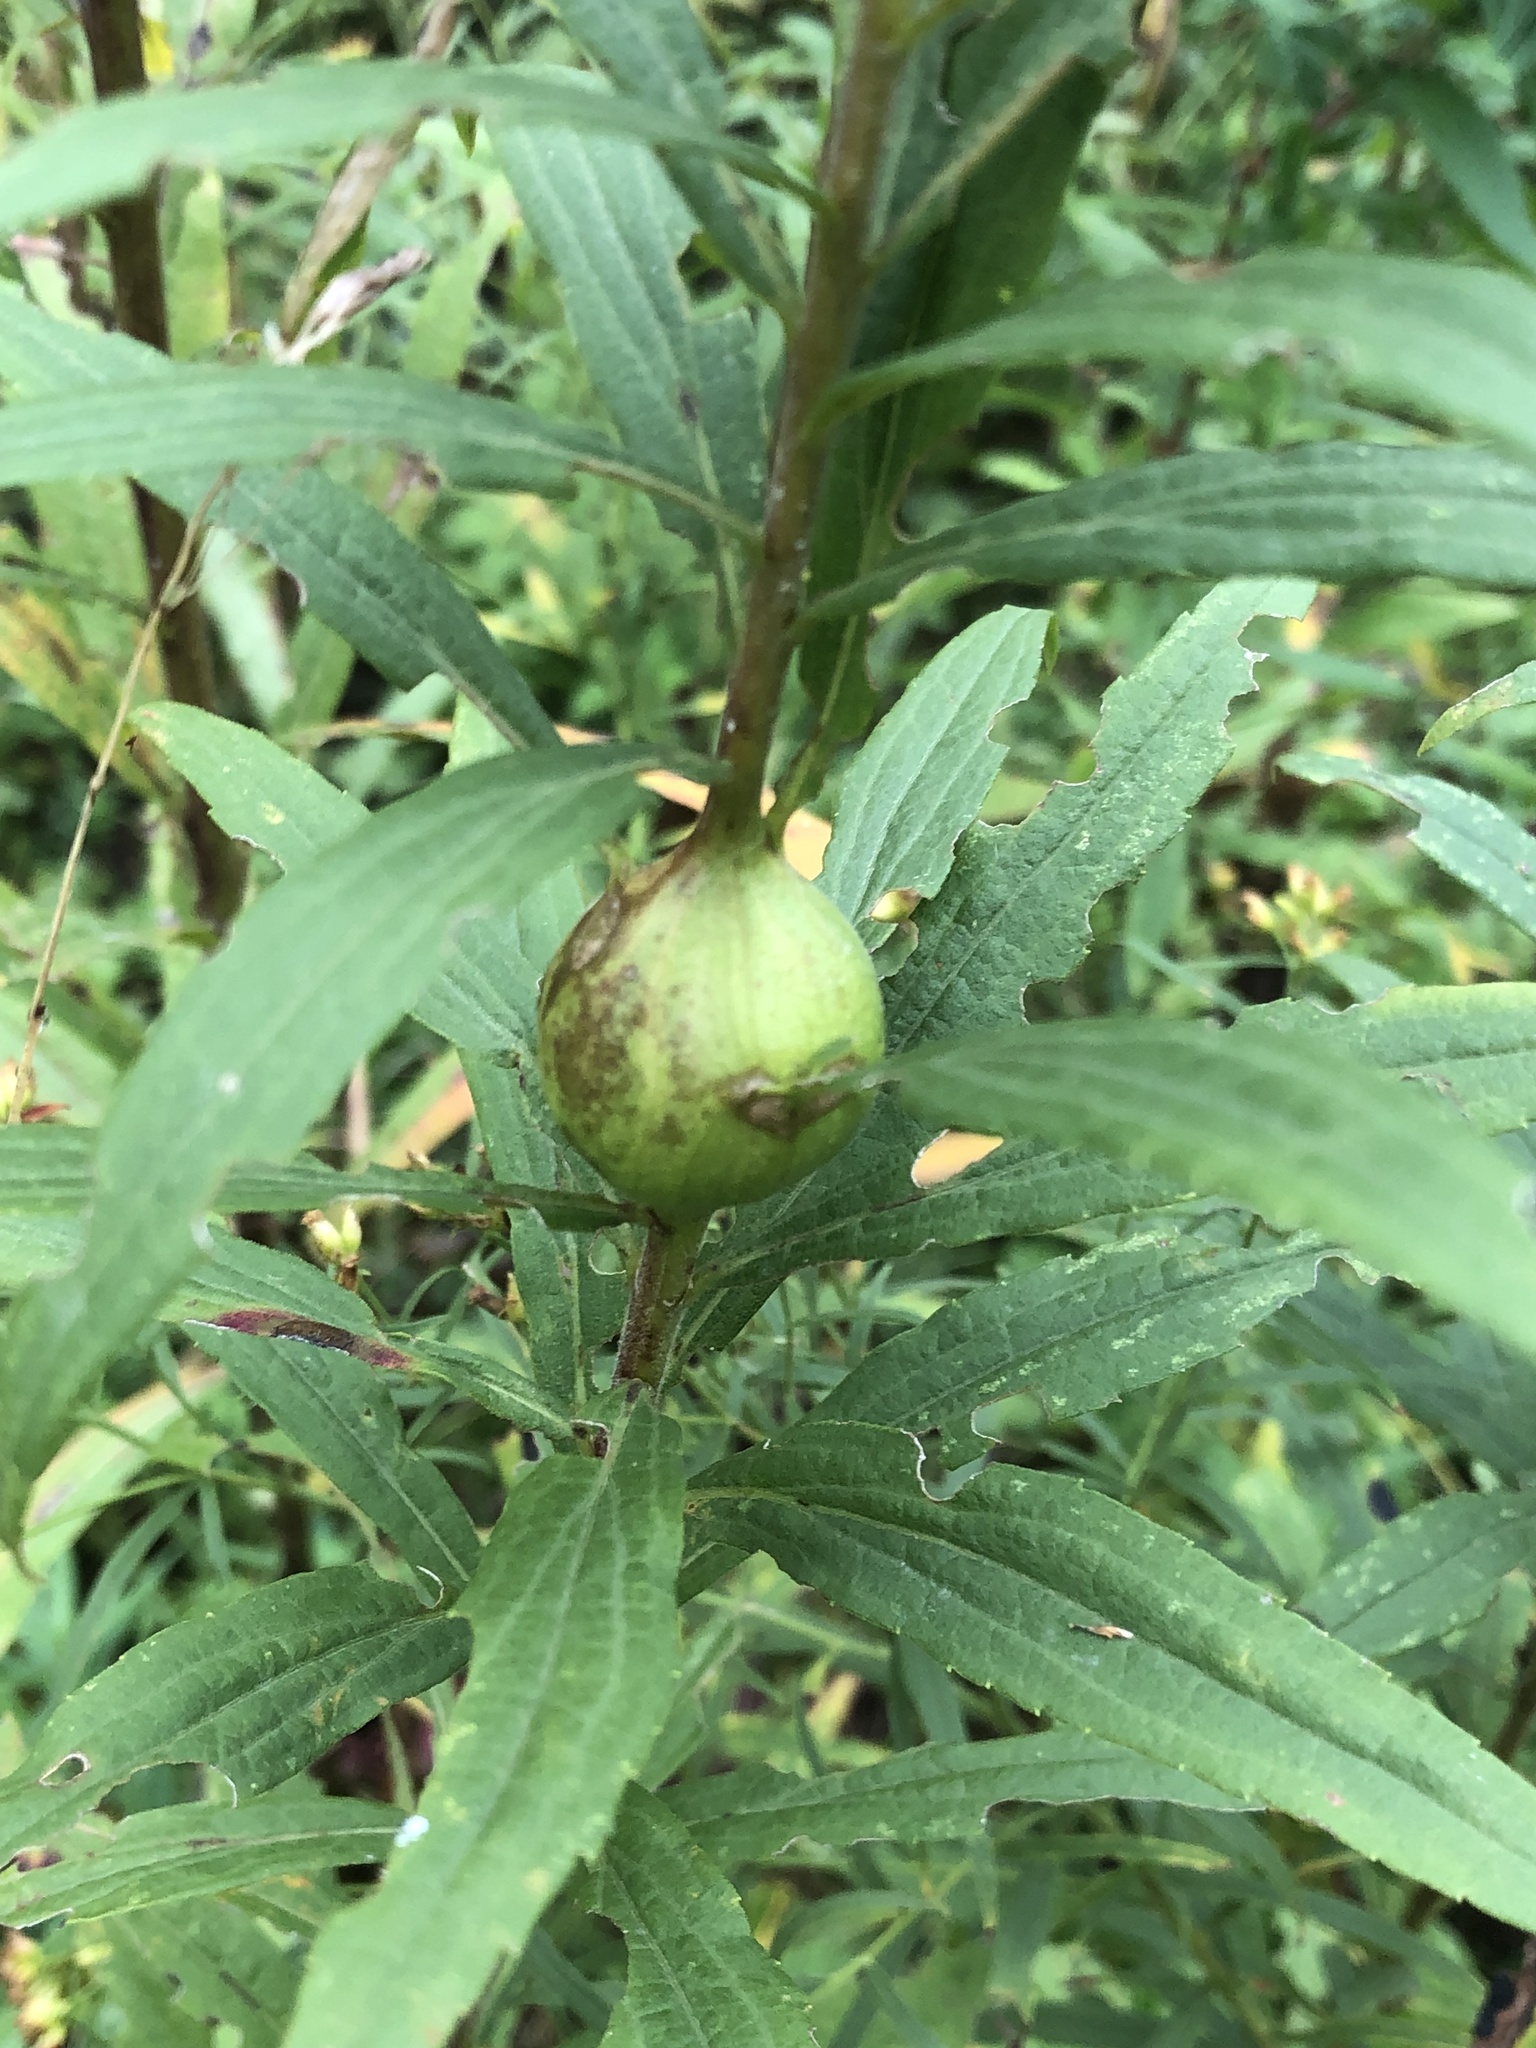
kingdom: Animalia
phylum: Arthropoda
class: Insecta
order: Diptera
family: Tephritidae
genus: Eurosta
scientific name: Eurosta solidaginis
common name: Goldenrod gall fly
